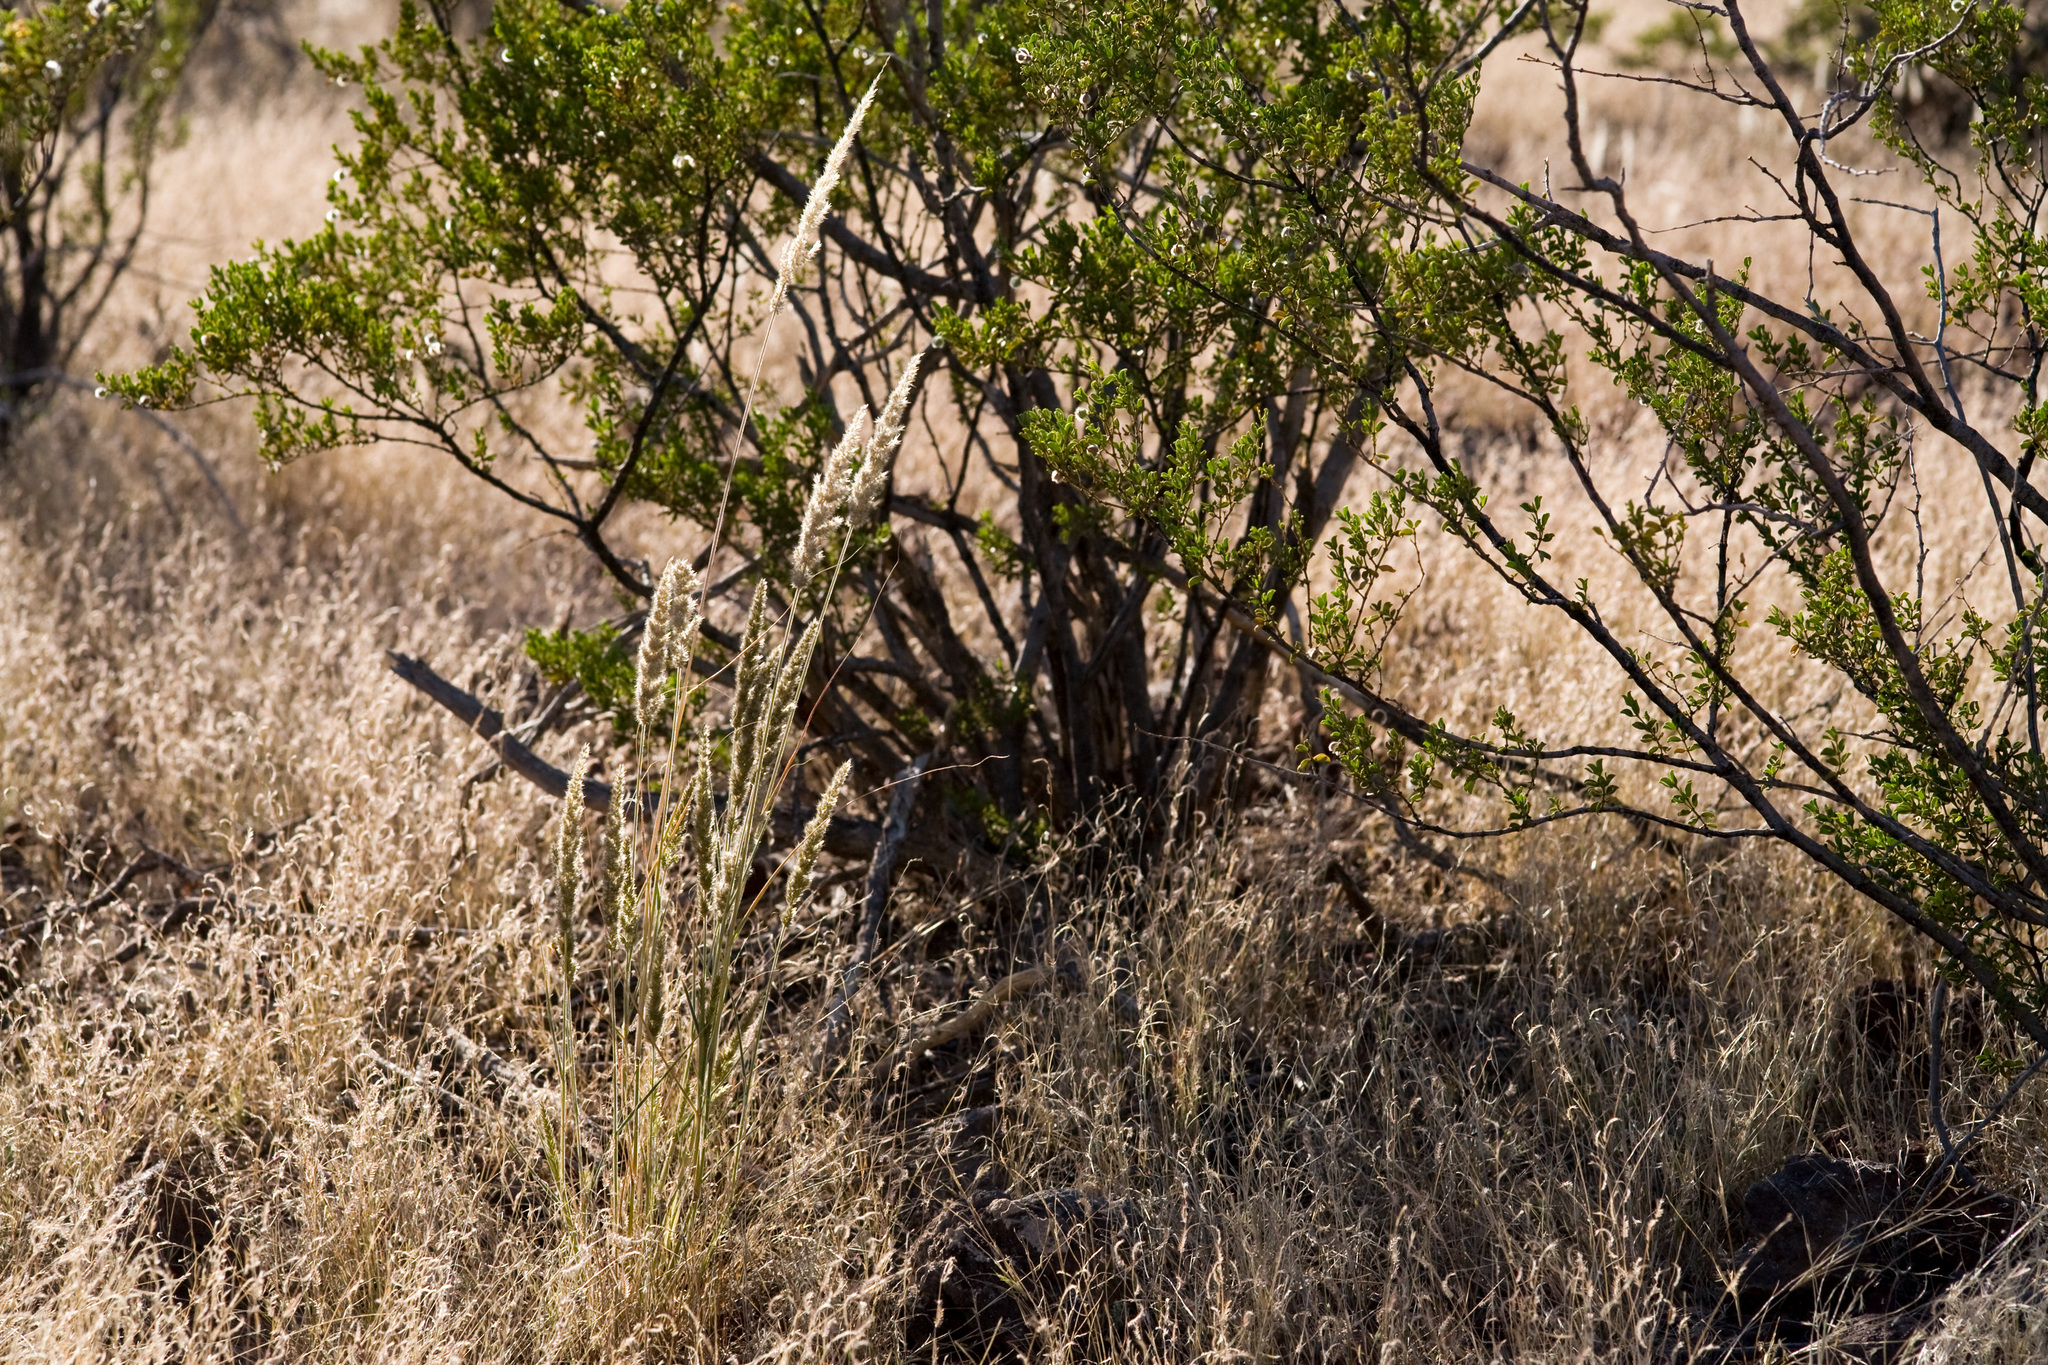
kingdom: Plantae
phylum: Tracheophyta
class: Liliopsida
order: Poales
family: Poaceae
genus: Enneapogon
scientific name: Enneapogon cenchroides
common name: Soft feather pappusgrass
